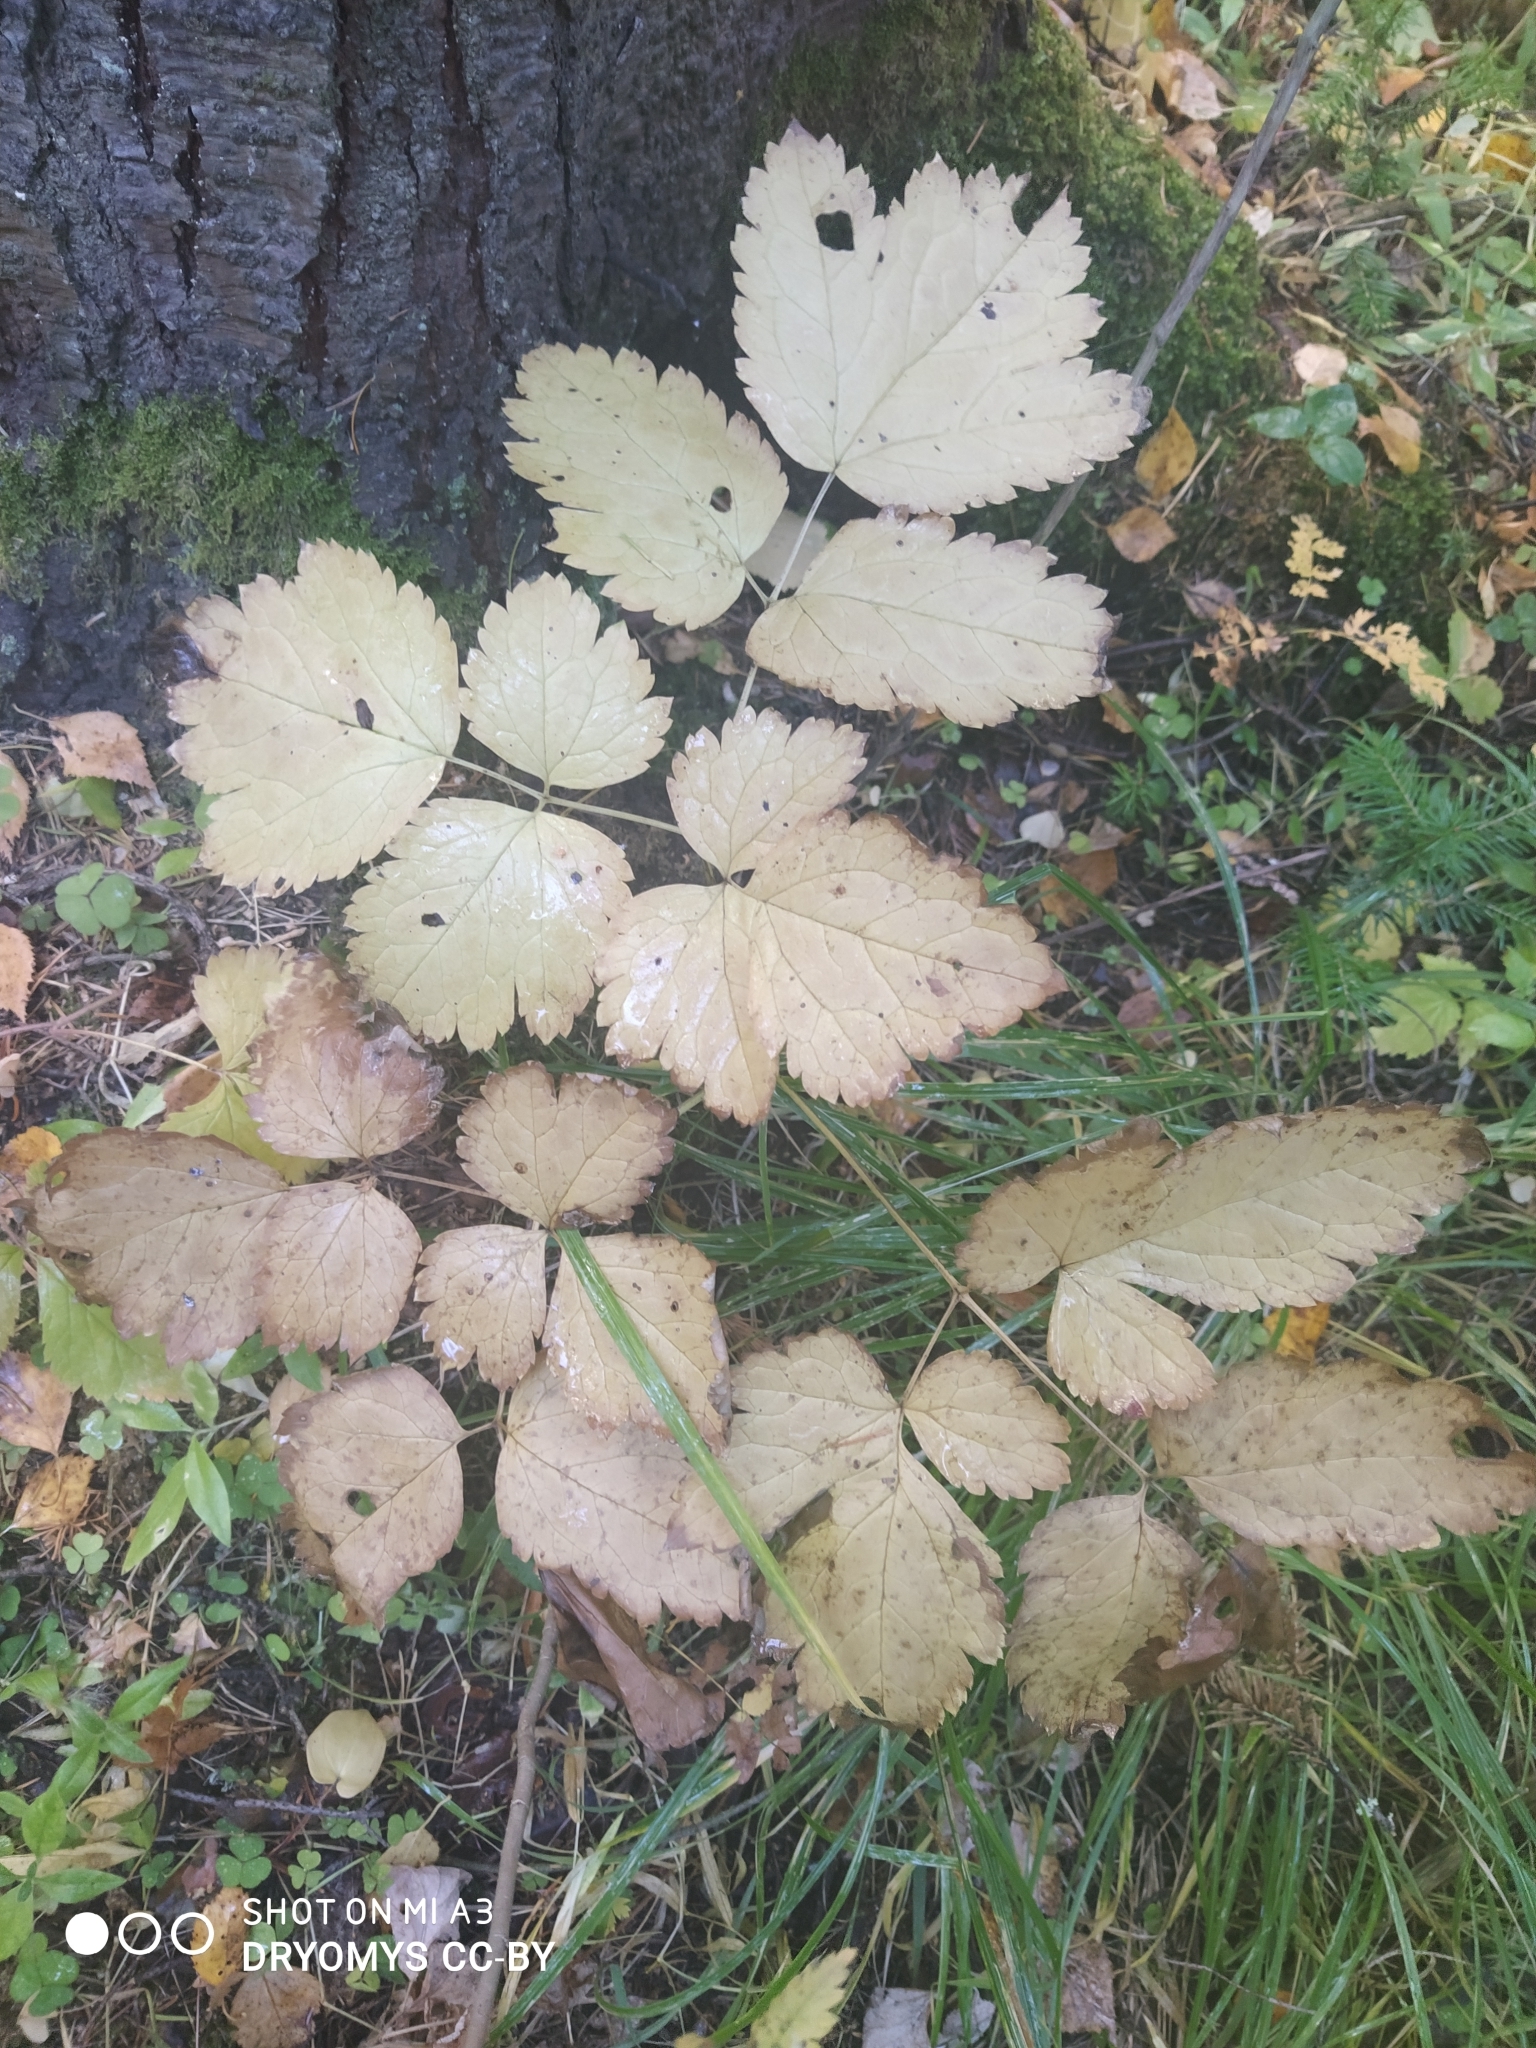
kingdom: Plantae
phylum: Tracheophyta
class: Magnoliopsida
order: Ranunculales
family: Ranunculaceae
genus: Actaea
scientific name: Actaea spicata
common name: Baneberry
